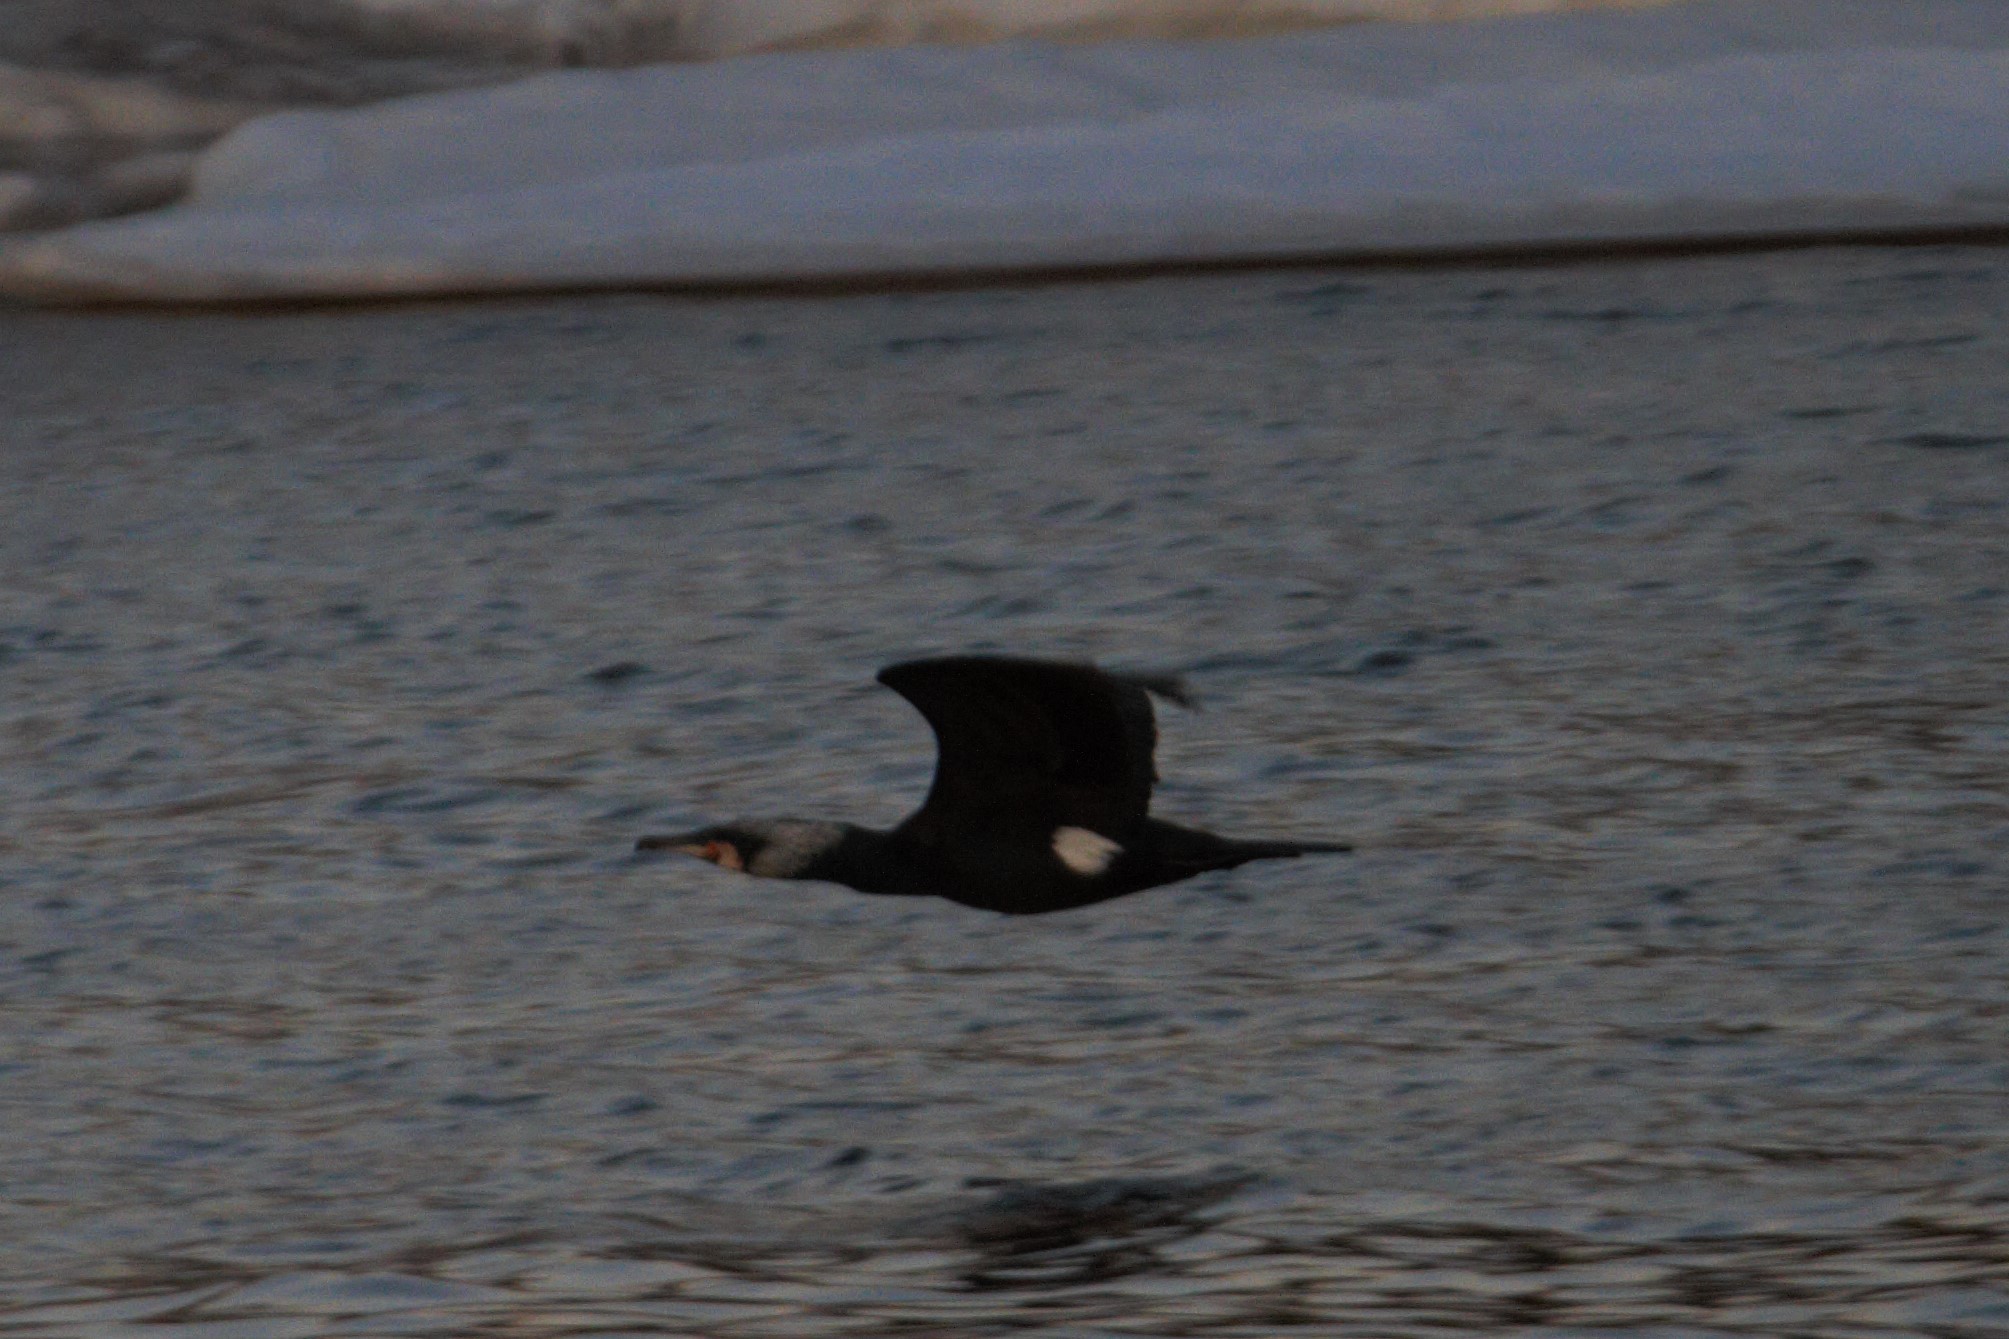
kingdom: Animalia
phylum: Chordata
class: Aves
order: Suliformes
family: Phalacrocoracidae
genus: Phalacrocorax
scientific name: Phalacrocorax carbo
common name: Great cormorant
